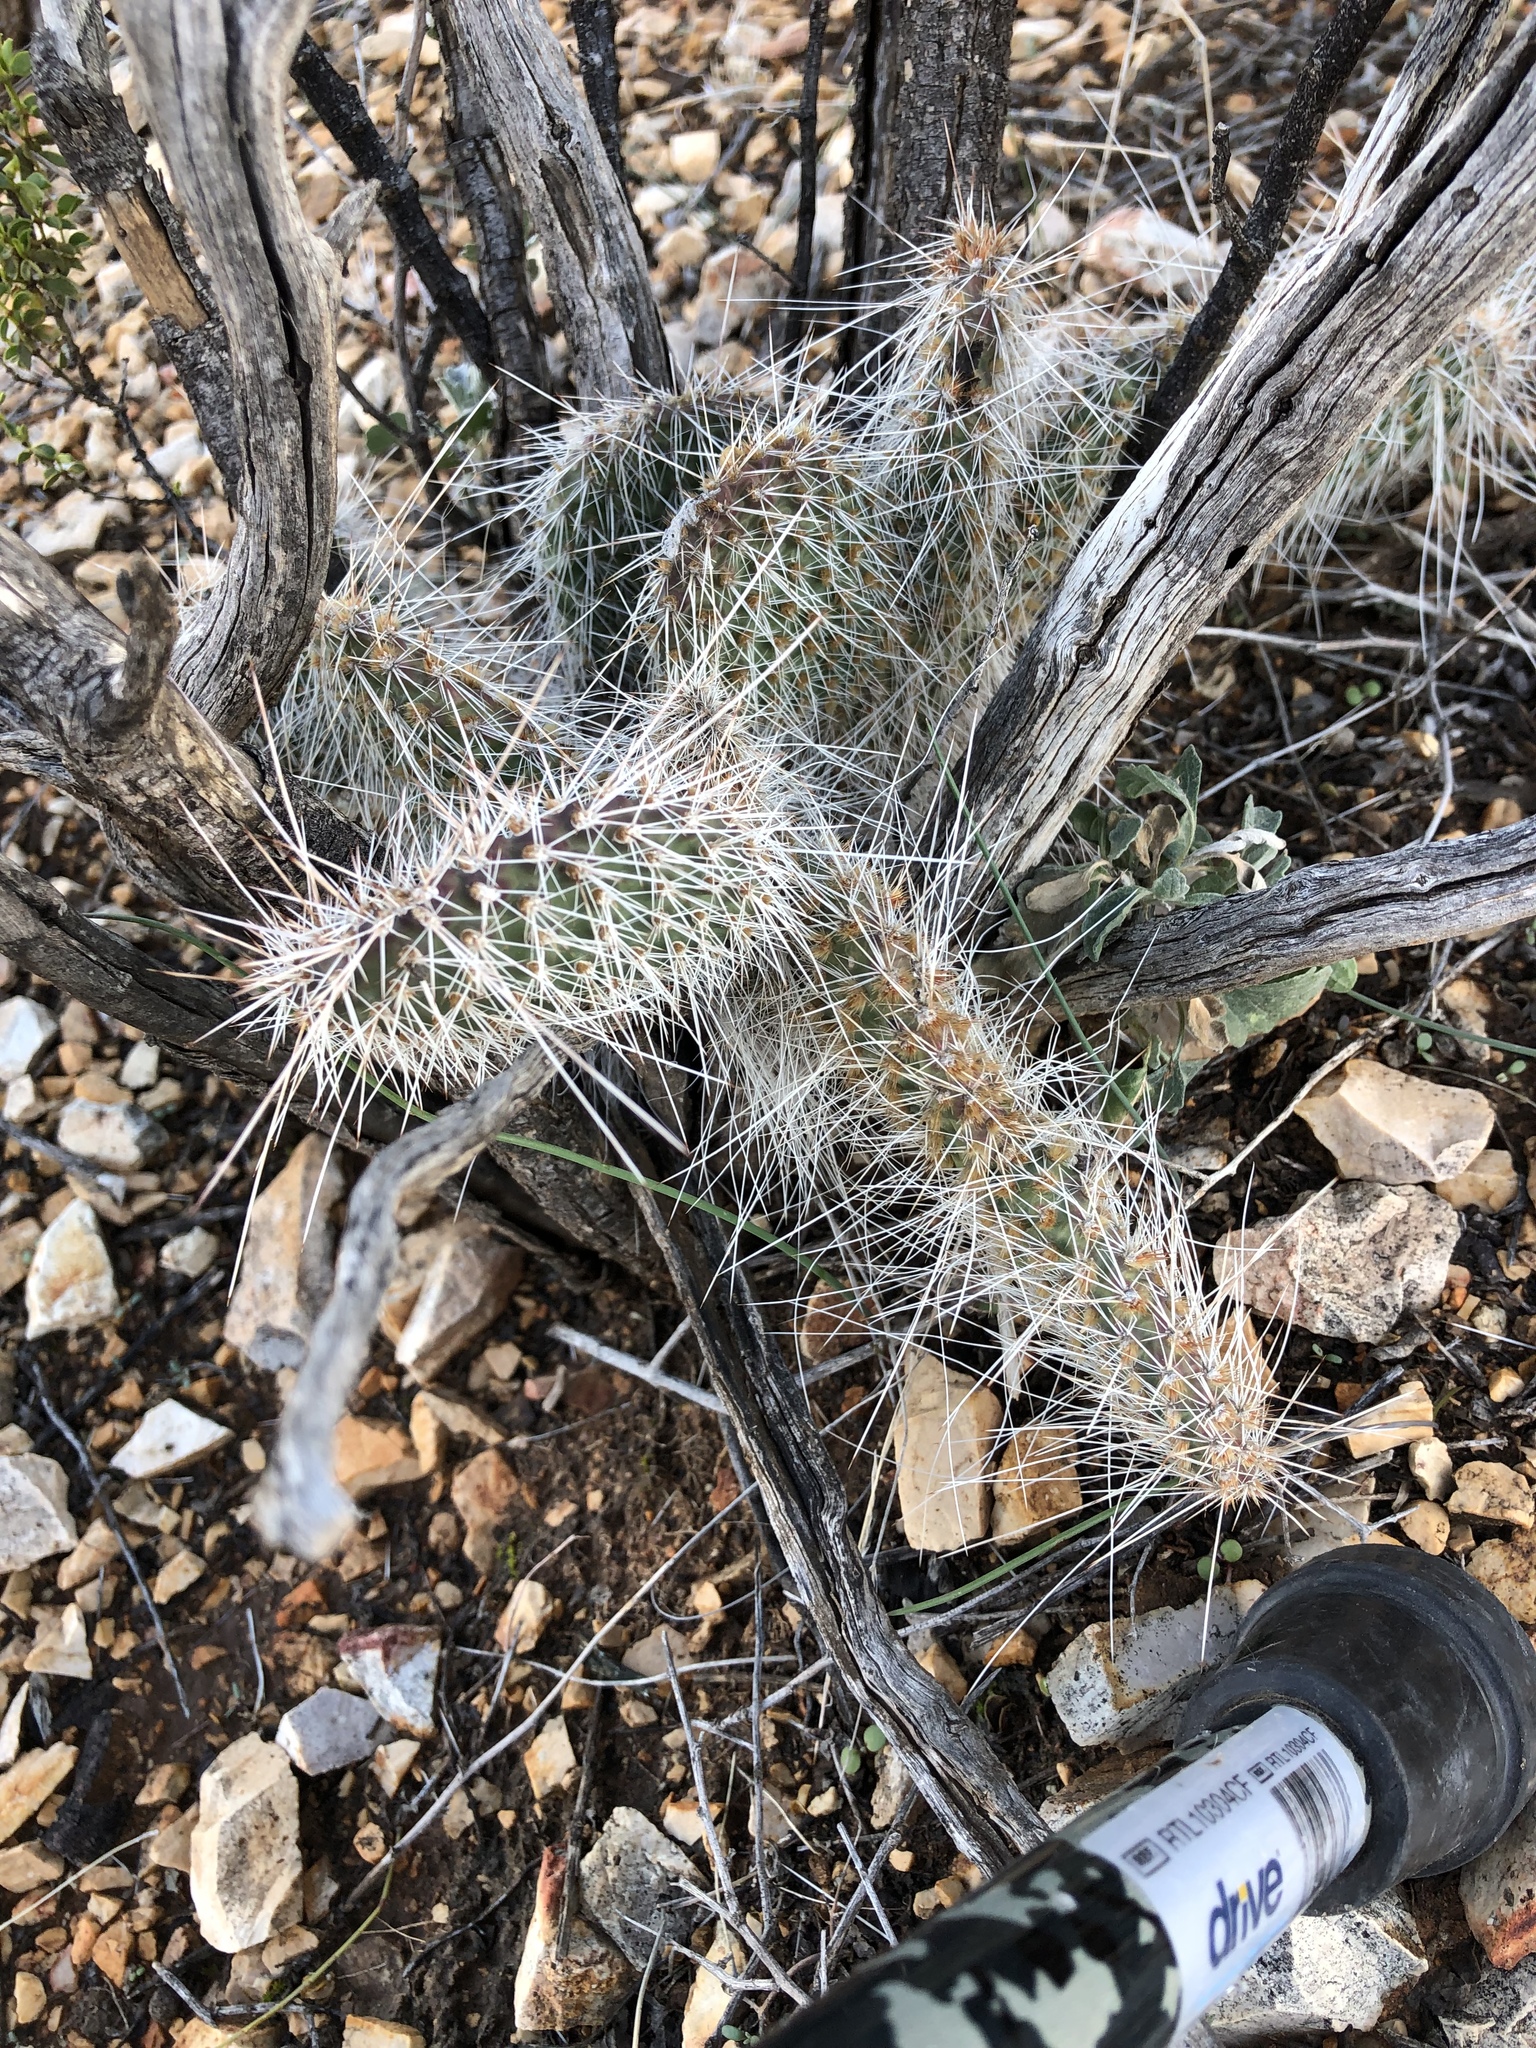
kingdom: Plantae
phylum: Tracheophyta
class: Magnoliopsida
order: Caryophyllales
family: Cactaceae
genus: Opuntia
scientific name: Opuntia polyacantha
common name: Plains prickly-pear
